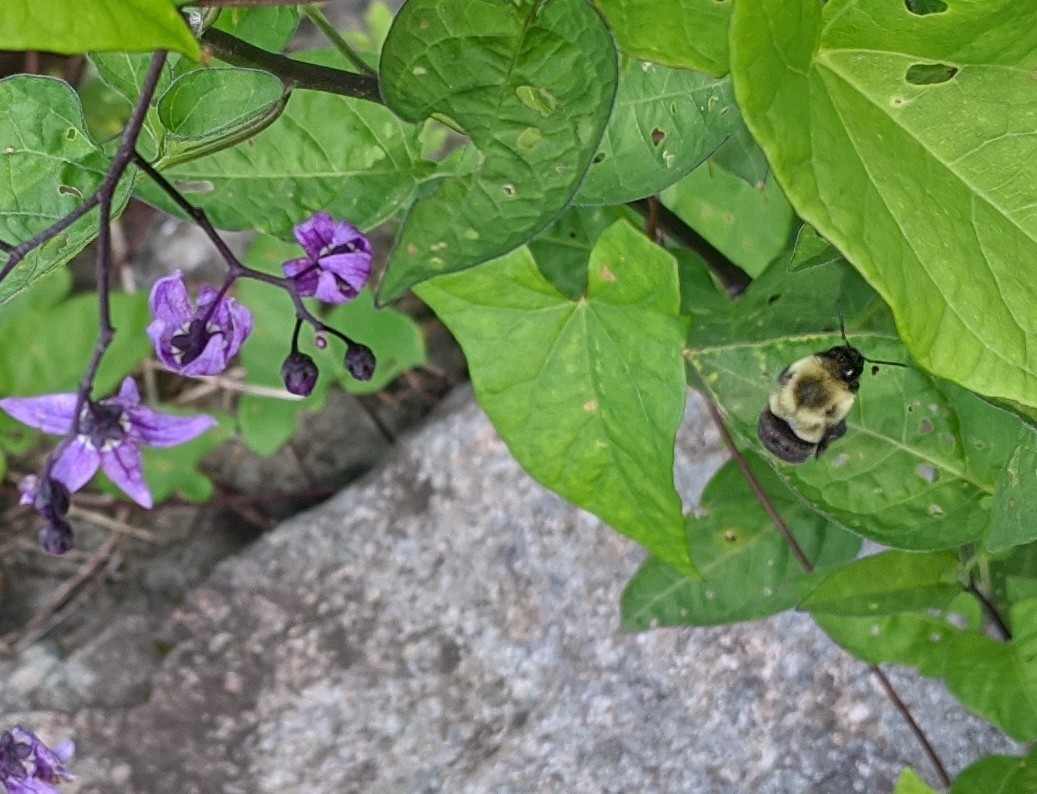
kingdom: Animalia
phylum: Arthropoda
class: Insecta
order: Hymenoptera
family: Apidae
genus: Bombus
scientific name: Bombus impatiens
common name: Common eastern bumble bee
